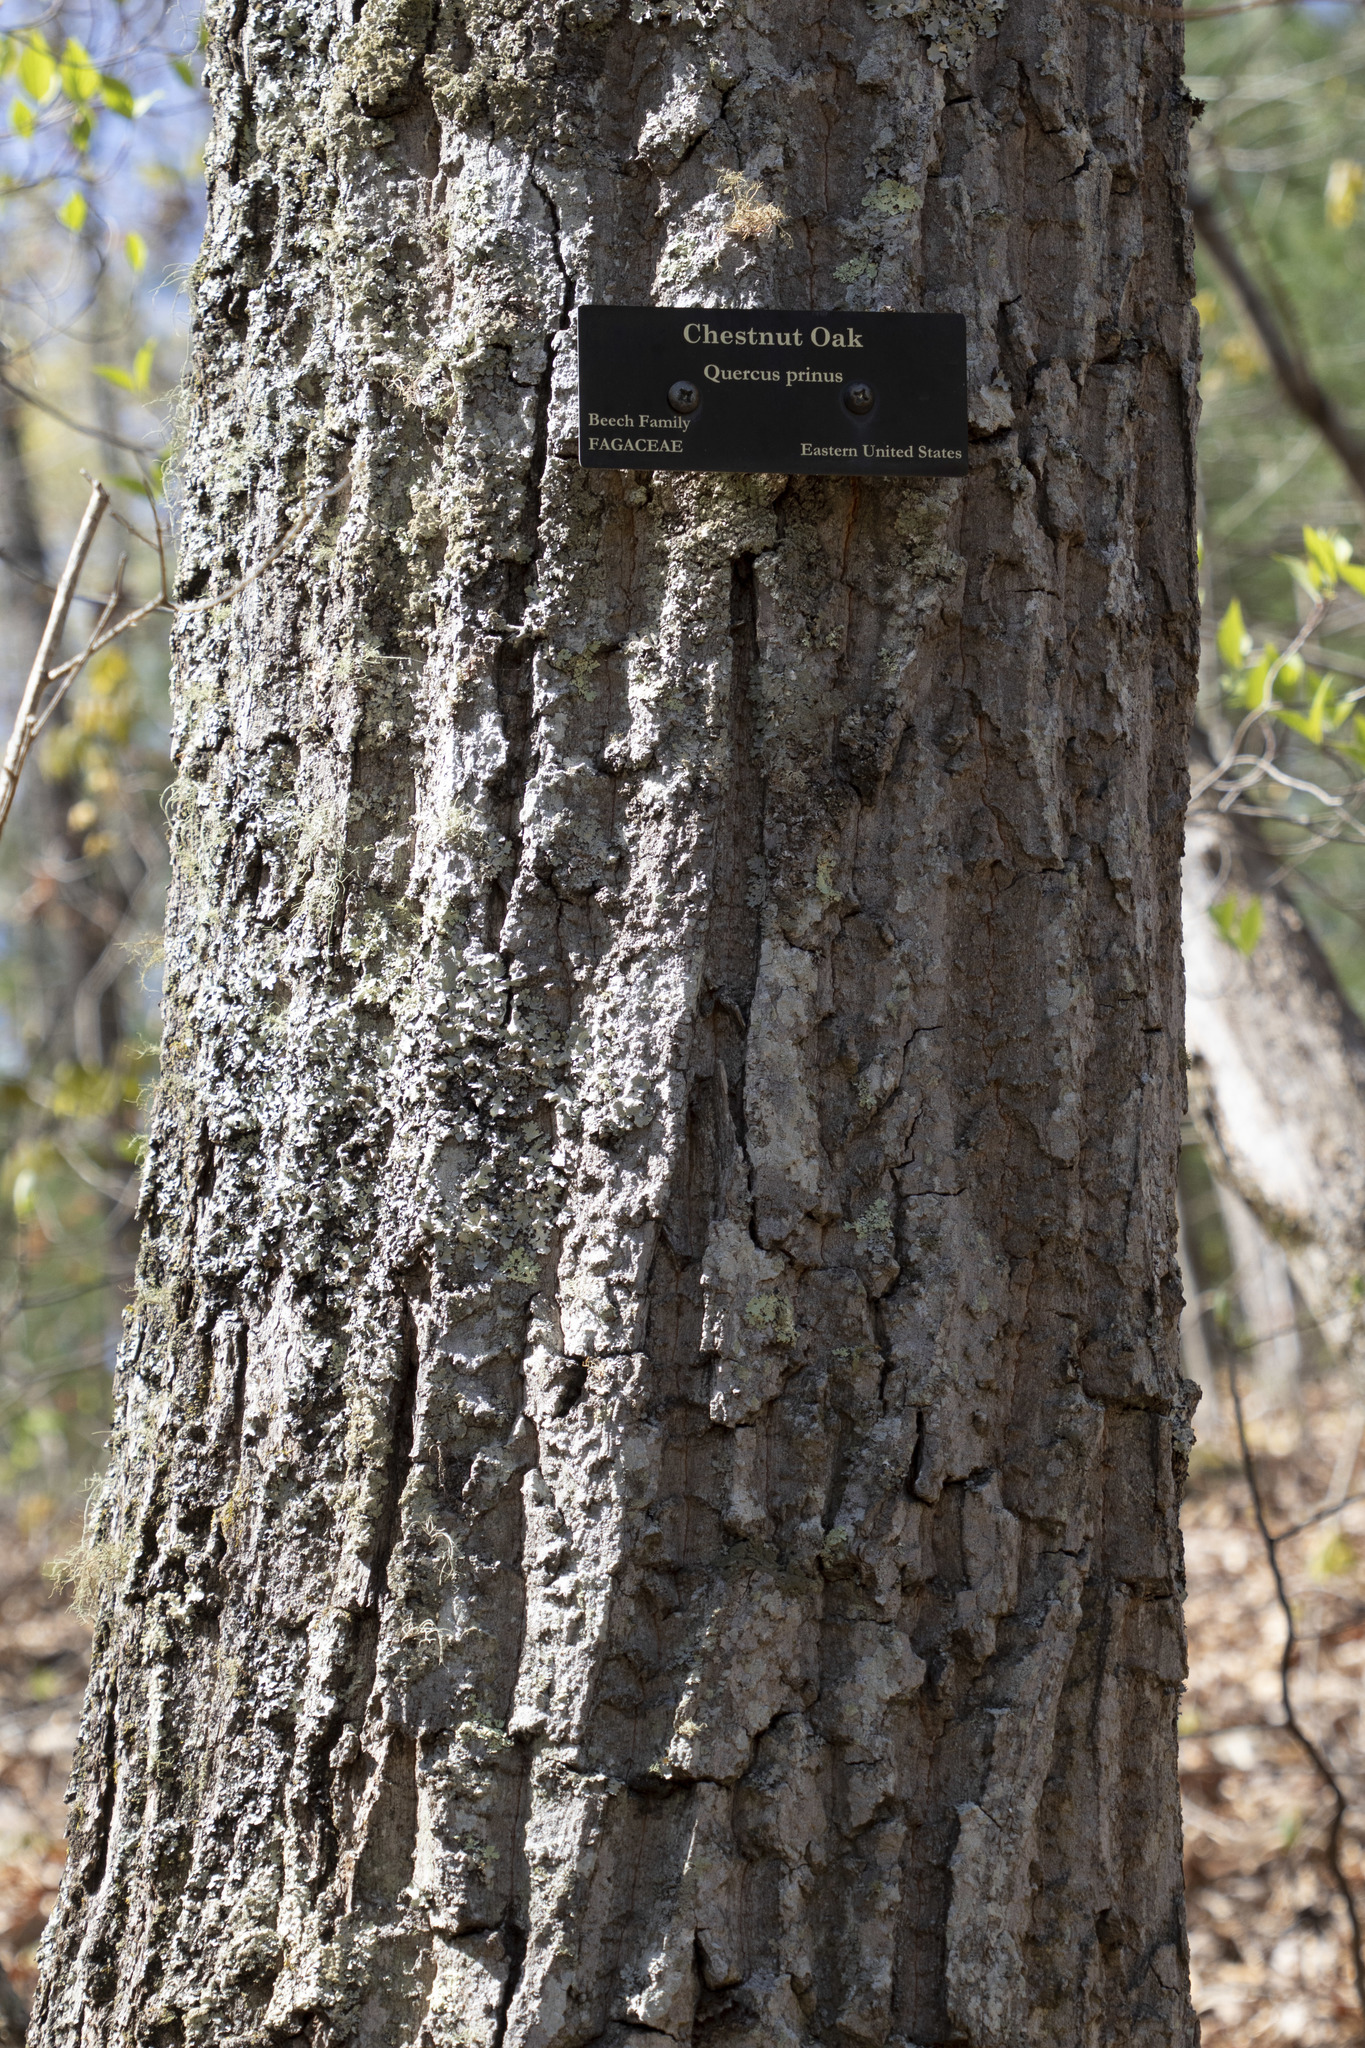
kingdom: Plantae
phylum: Tracheophyta
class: Magnoliopsida
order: Fagales
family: Fagaceae
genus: Quercus
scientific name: Quercus montana
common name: Chestnut oak
